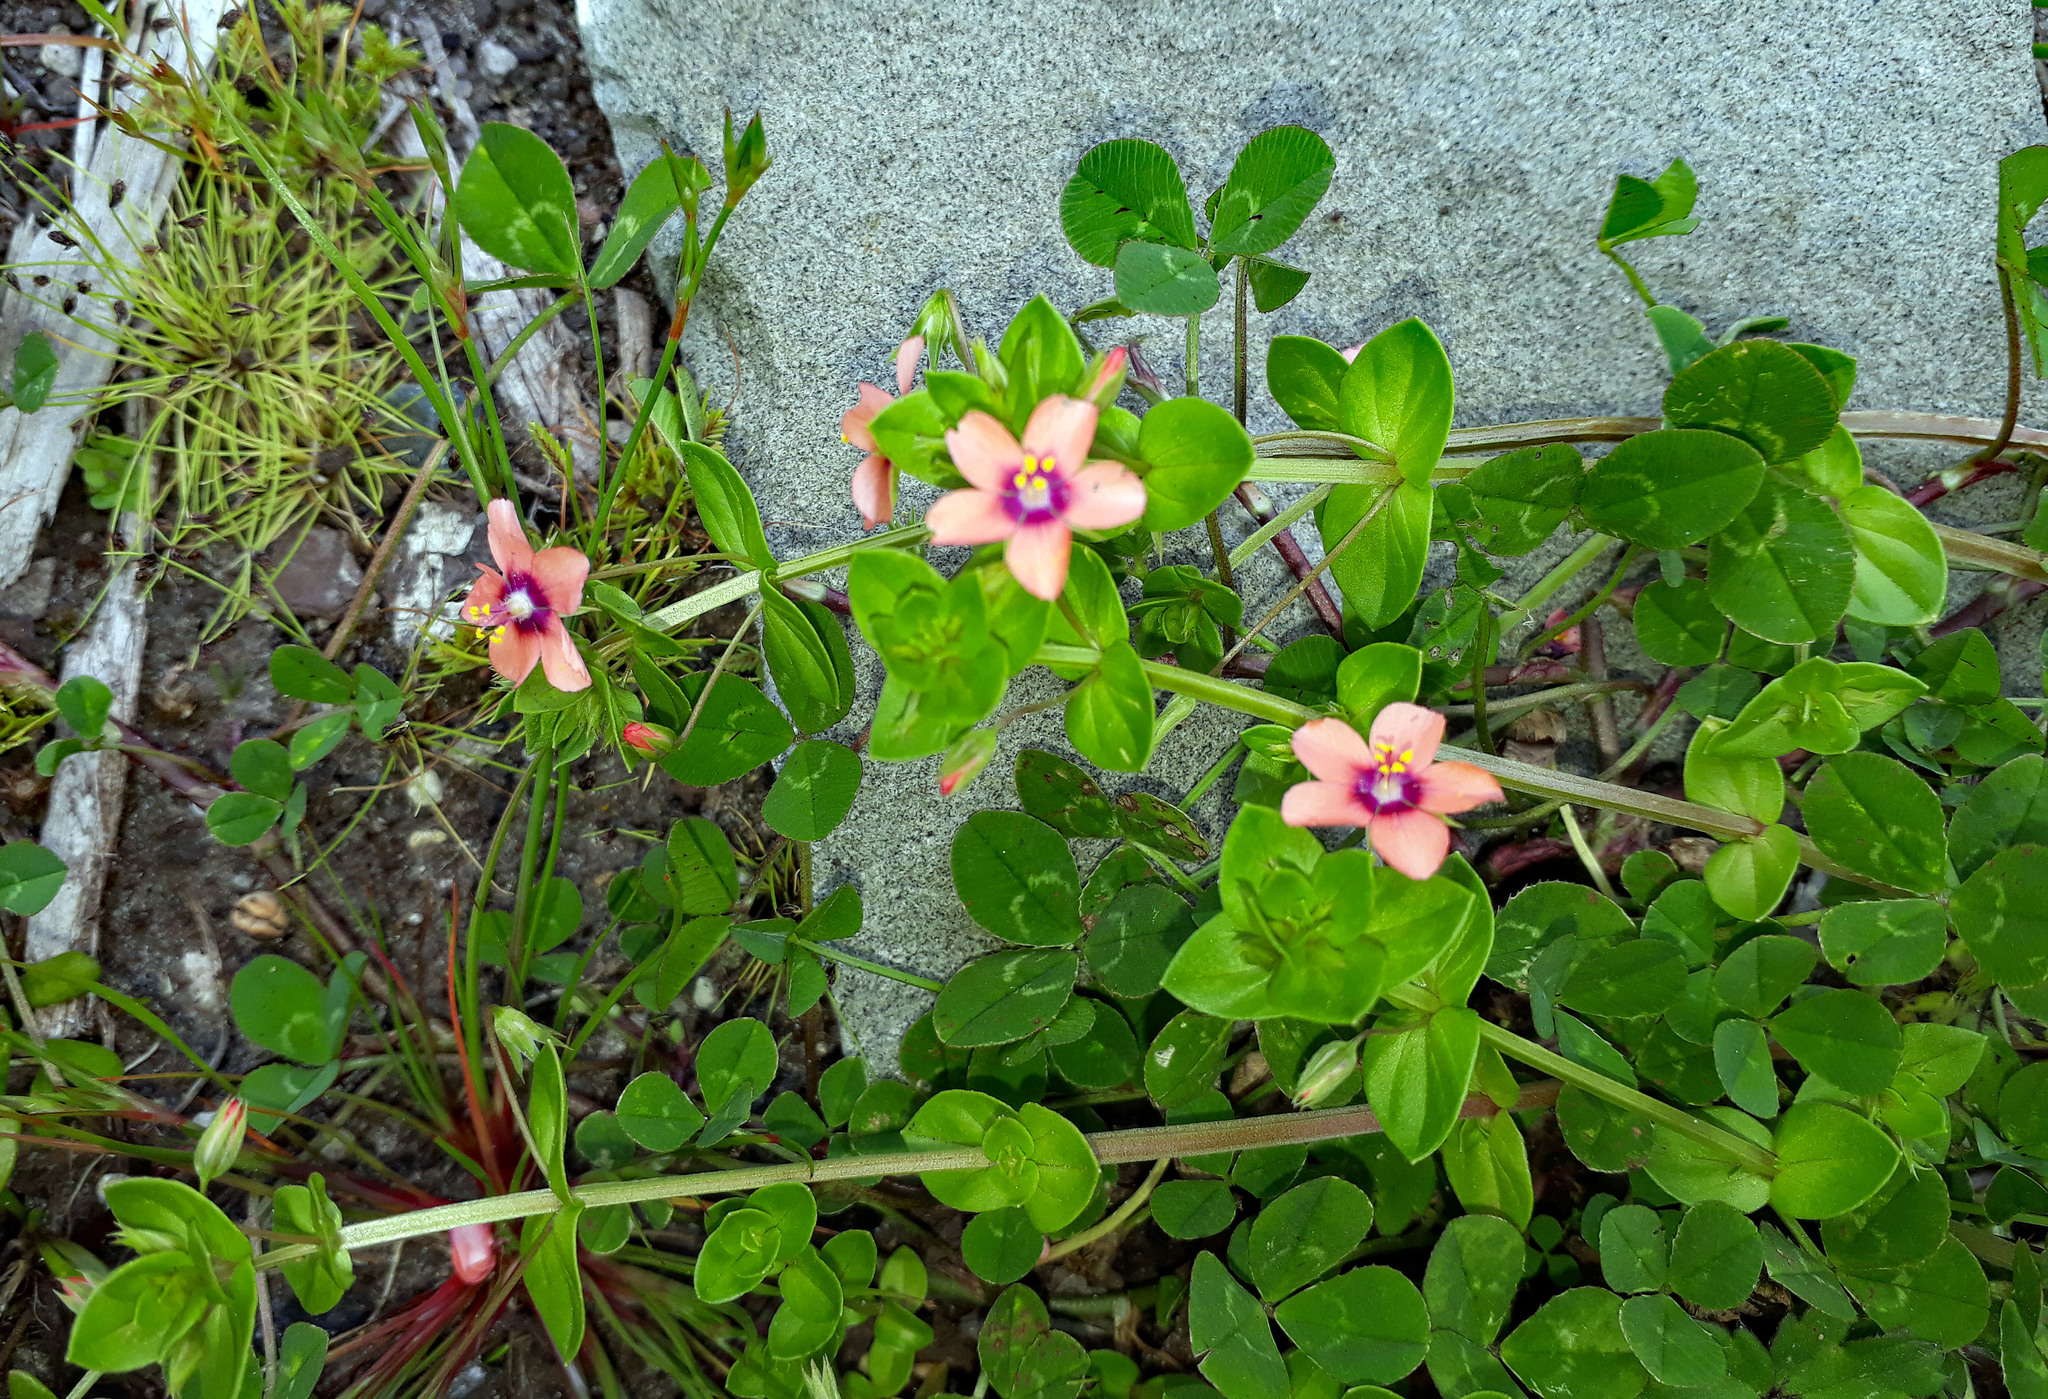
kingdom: Plantae
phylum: Tracheophyta
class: Magnoliopsida
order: Ericales
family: Primulaceae
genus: Lysimachia
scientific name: Lysimachia arvensis
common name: Scarlet pimpernel
